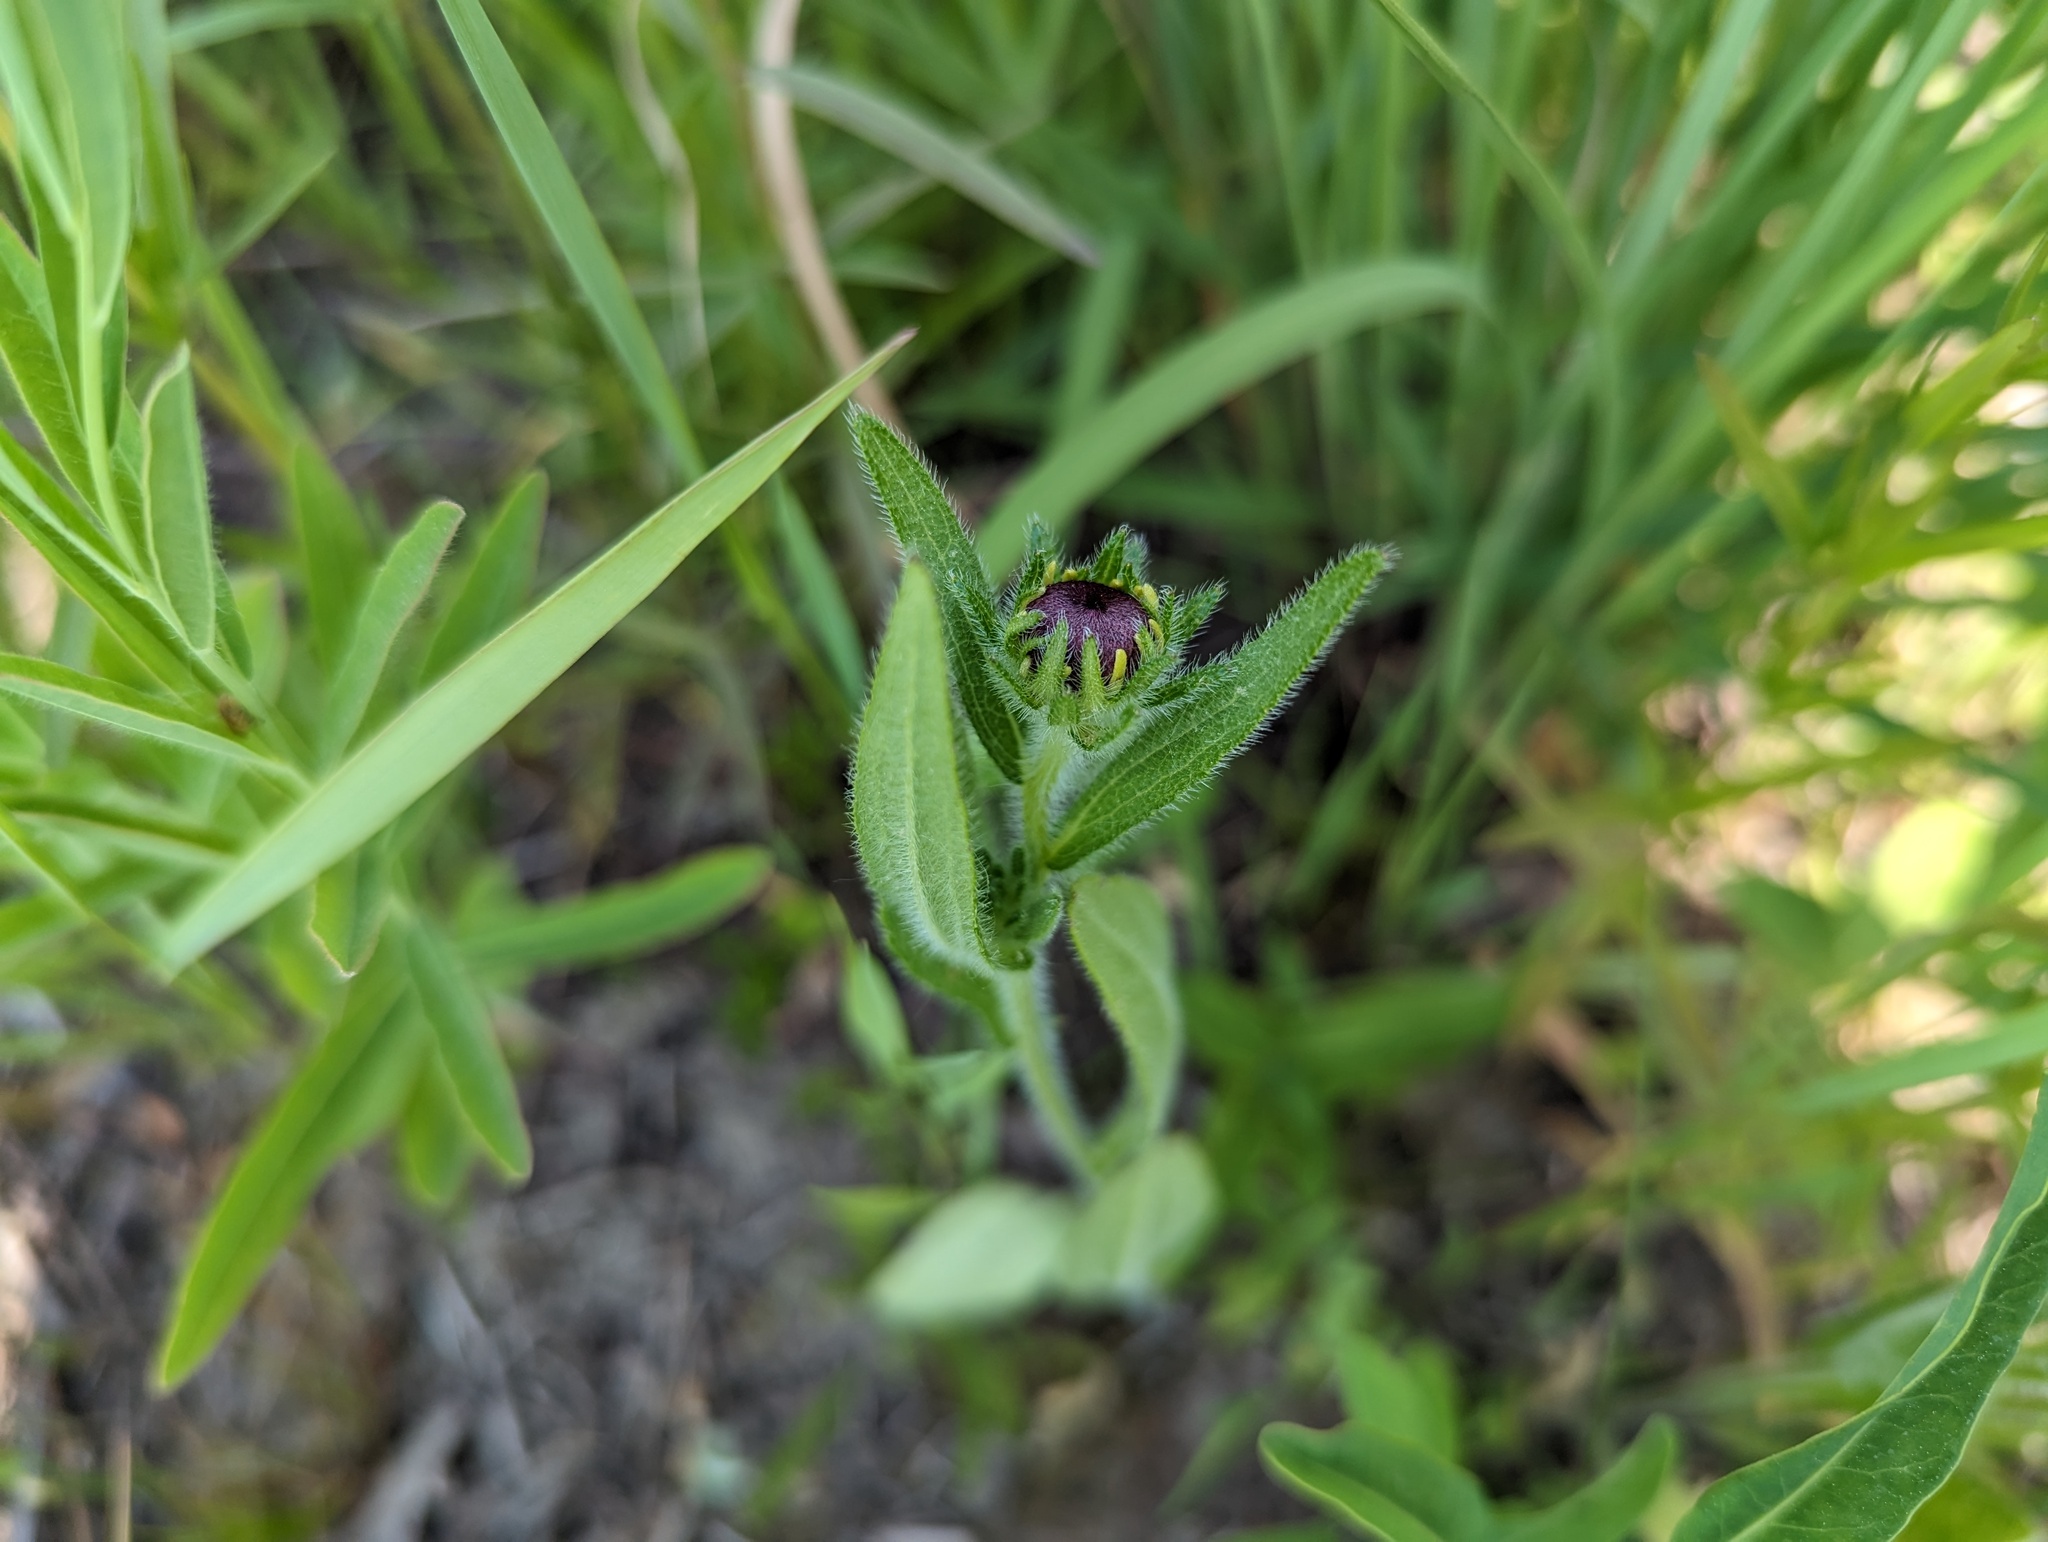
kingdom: Plantae
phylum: Tracheophyta
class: Magnoliopsida
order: Asterales
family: Asteraceae
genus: Rudbeckia
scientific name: Rudbeckia hirta
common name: Black-eyed-susan
